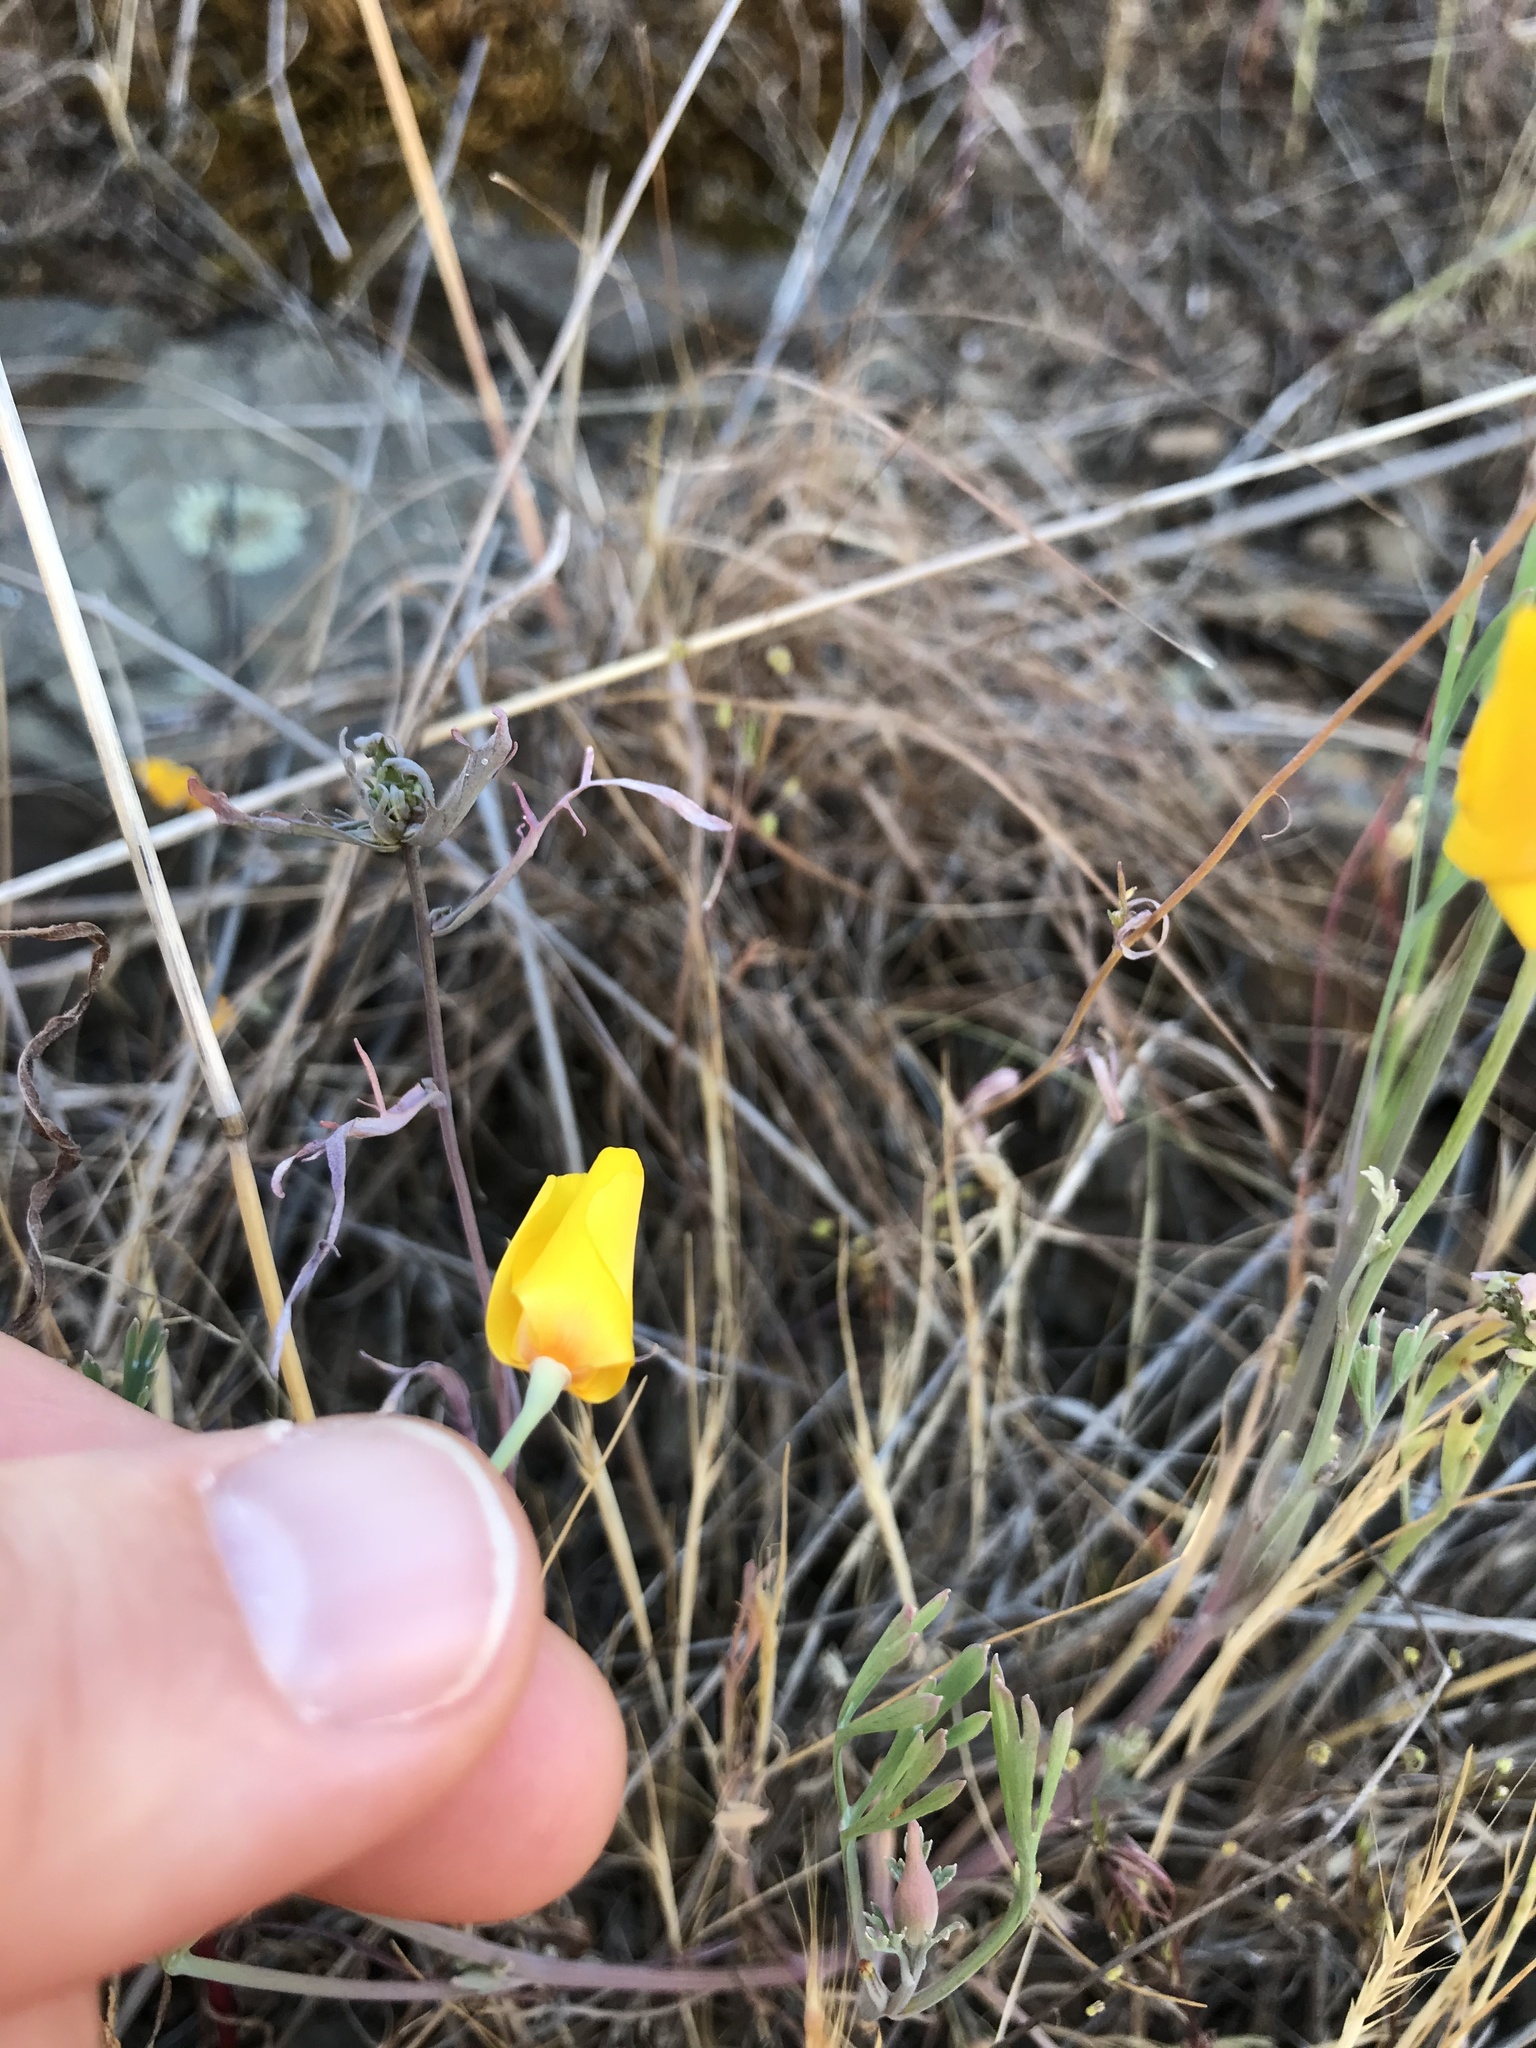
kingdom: Plantae
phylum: Tracheophyta
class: Magnoliopsida
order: Ranunculales
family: Papaveraceae
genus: Eschscholzia
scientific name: Eschscholzia caespitosa
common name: Tufted california-poppy
